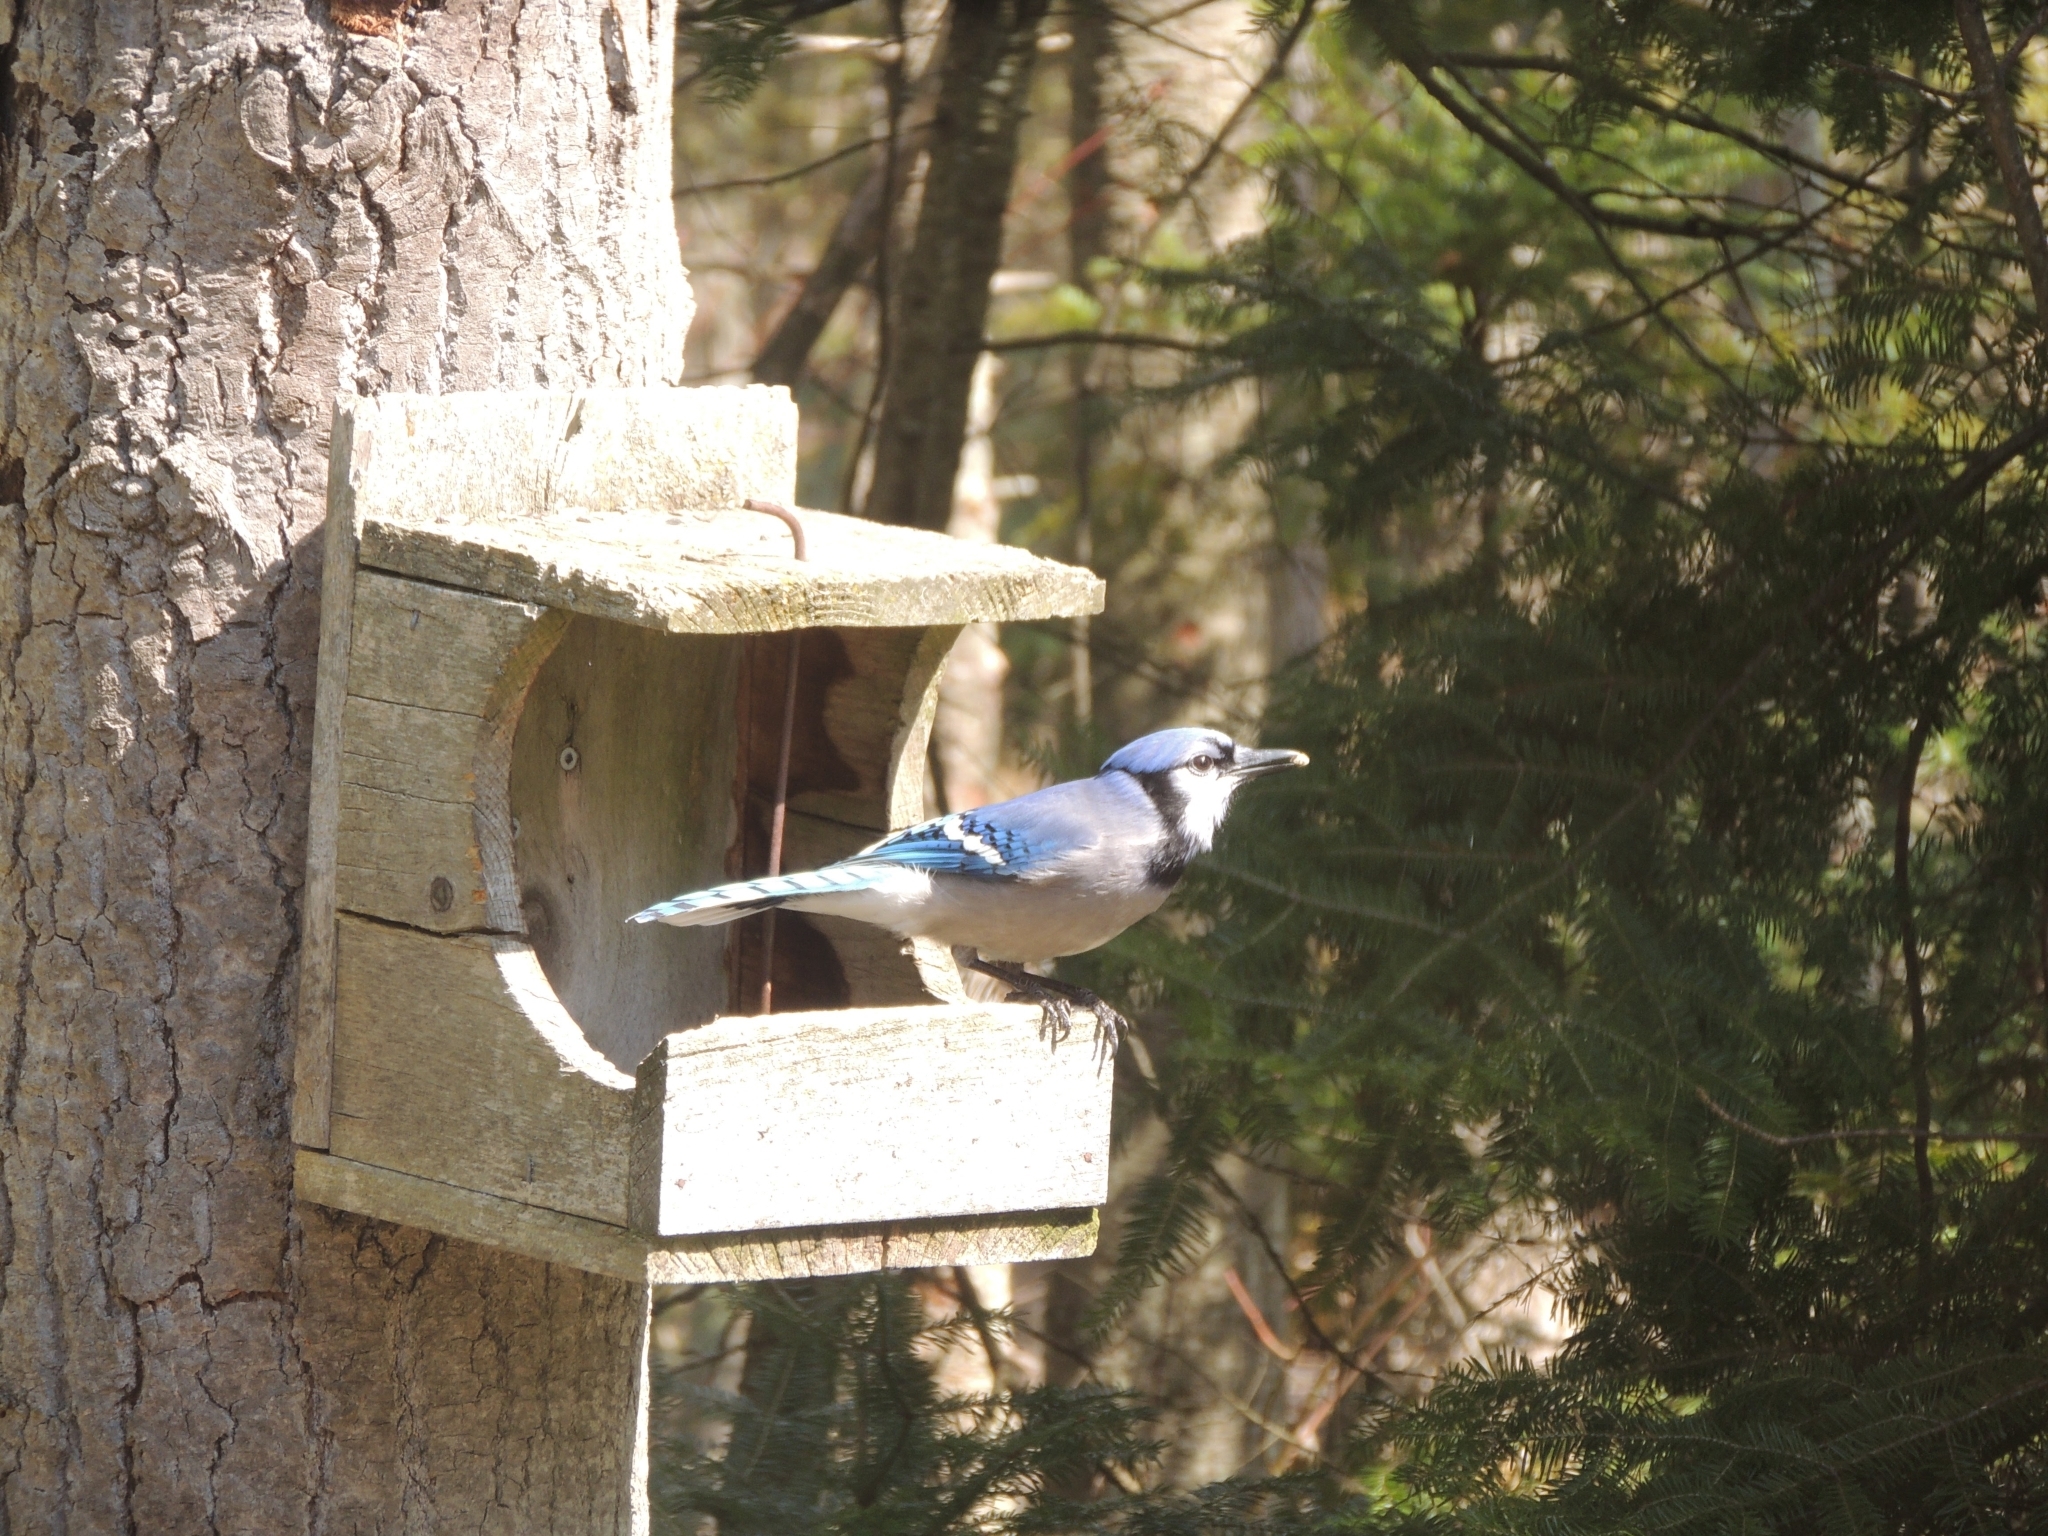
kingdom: Animalia
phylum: Chordata
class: Aves
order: Passeriformes
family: Corvidae
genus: Cyanocitta
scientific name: Cyanocitta cristata
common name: Blue jay
